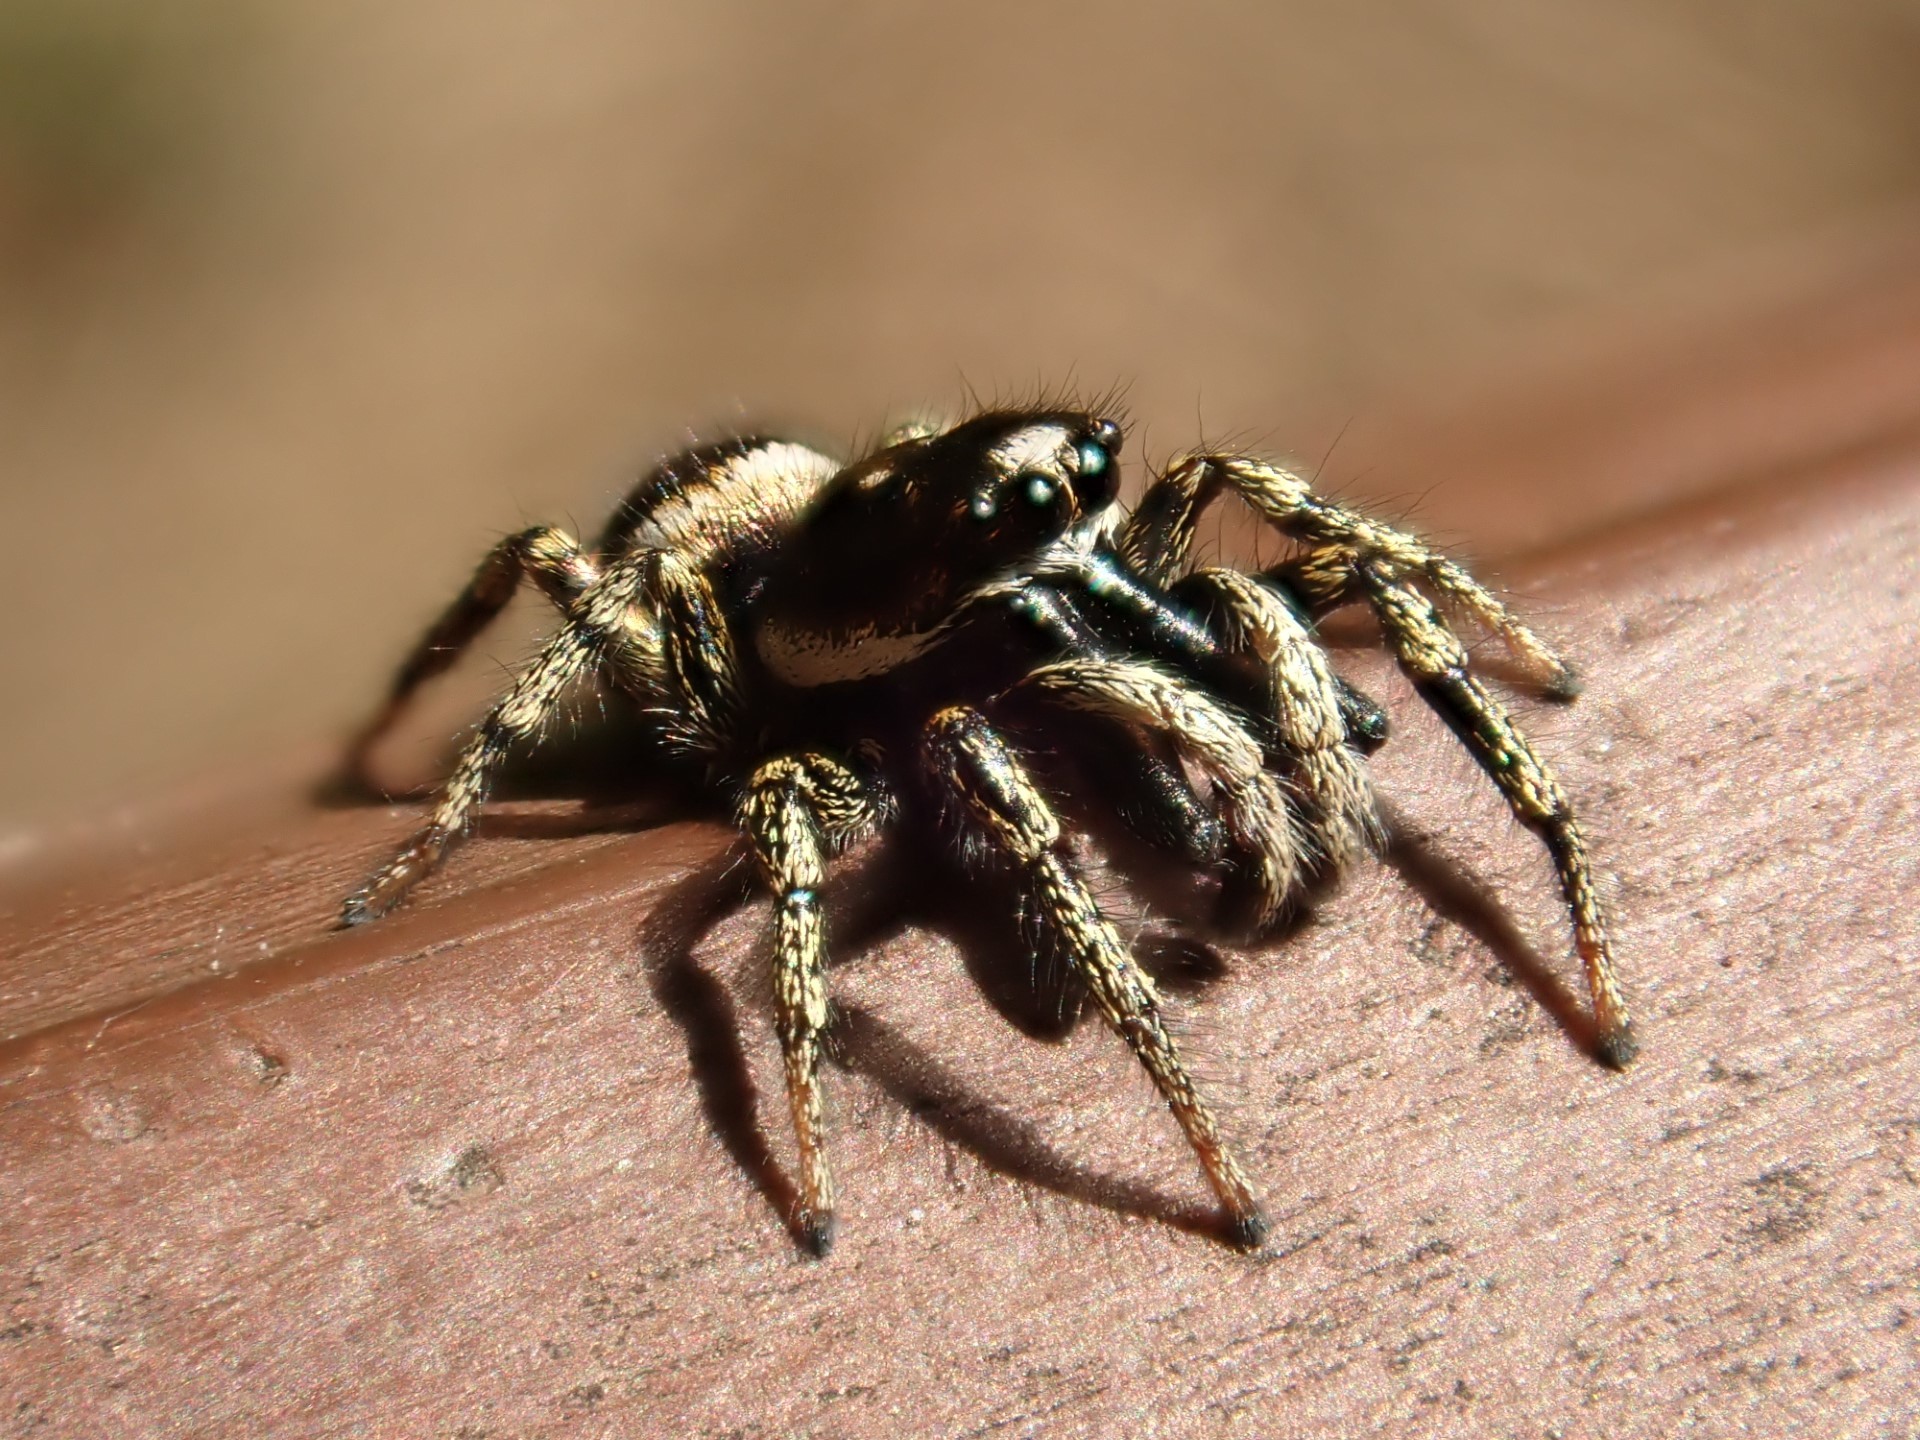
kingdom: Animalia
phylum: Arthropoda
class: Arachnida
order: Araneae
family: Salticidae
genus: Salticus
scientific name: Salticus scenicus
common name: Zebra jumper
